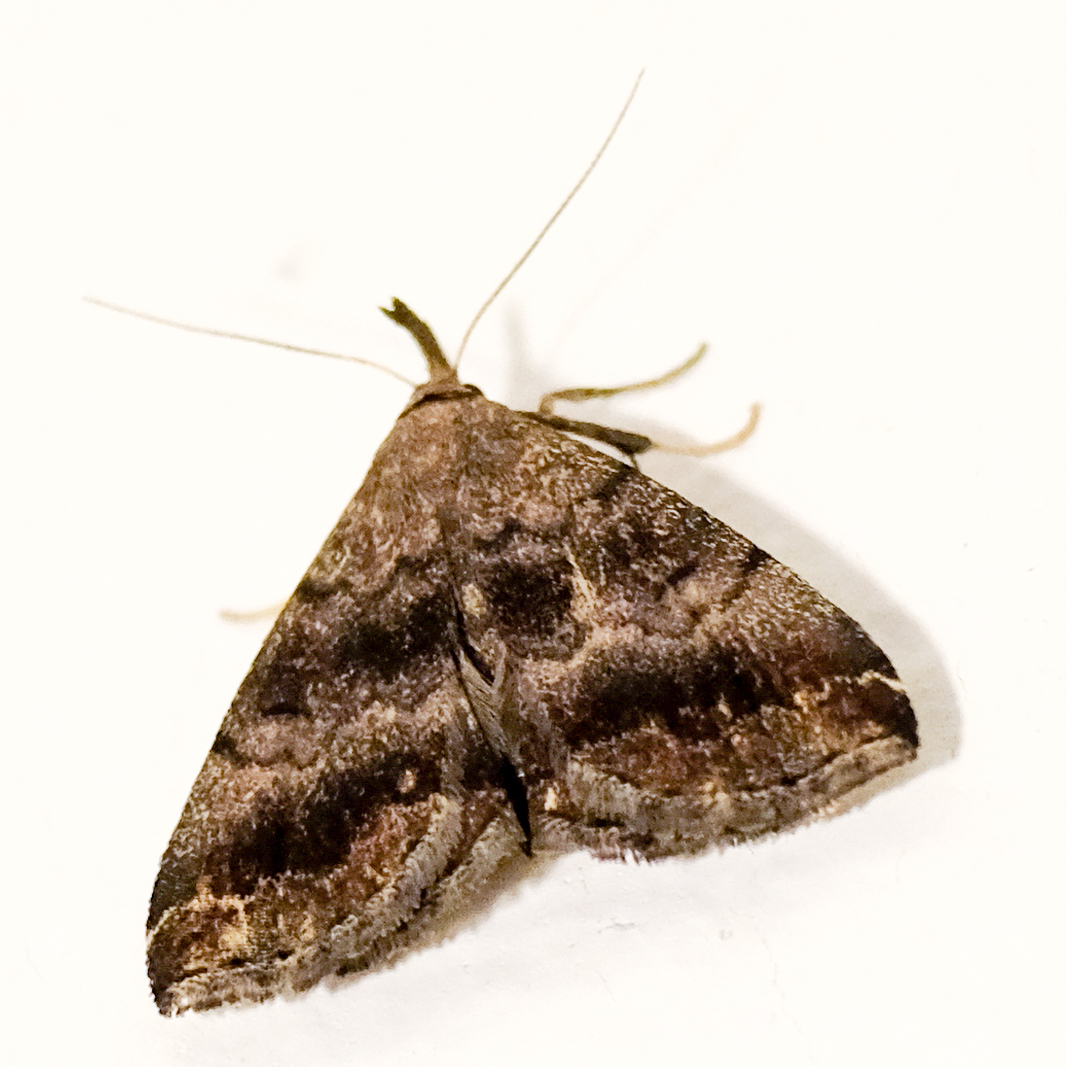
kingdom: Animalia
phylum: Arthropoda
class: Insecta
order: Lepidoptera
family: Erebidae
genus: Phalaenostola
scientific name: Phalaenostola larentioides
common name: Black-banded owlet
